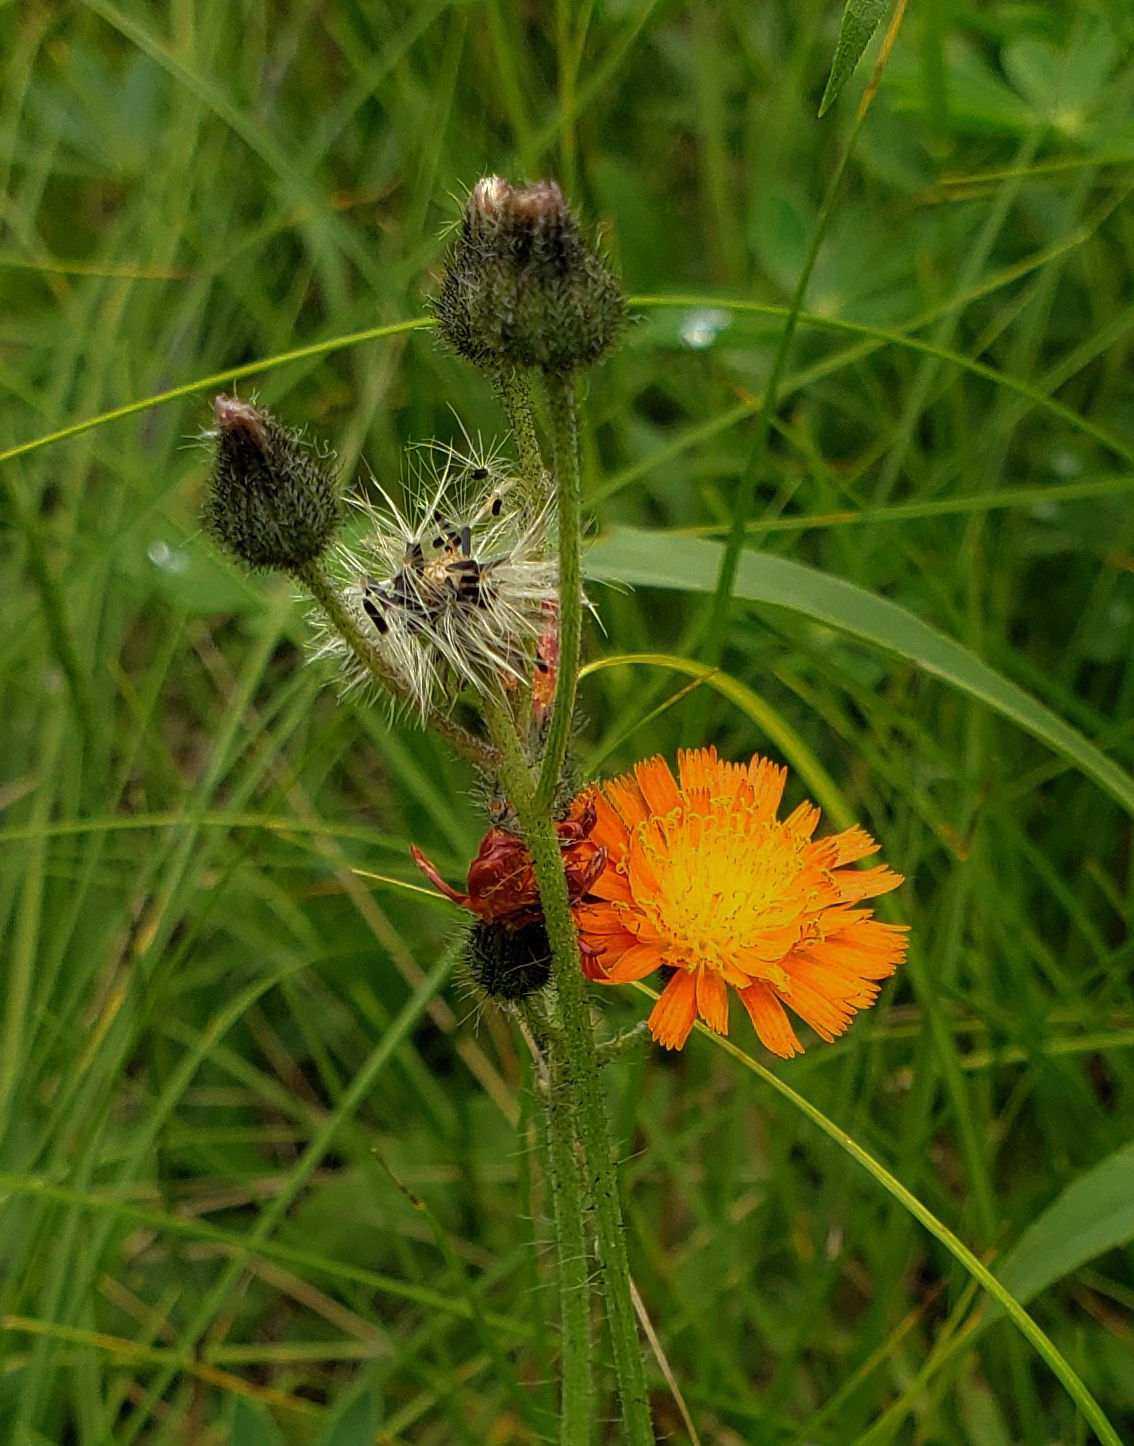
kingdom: Plantae
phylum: Tracheophyta
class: Magnoliopsida
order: Asterales
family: Asteraceae
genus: Pilosella
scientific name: Pilosella aurantiaca
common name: Fox-and-cubs
